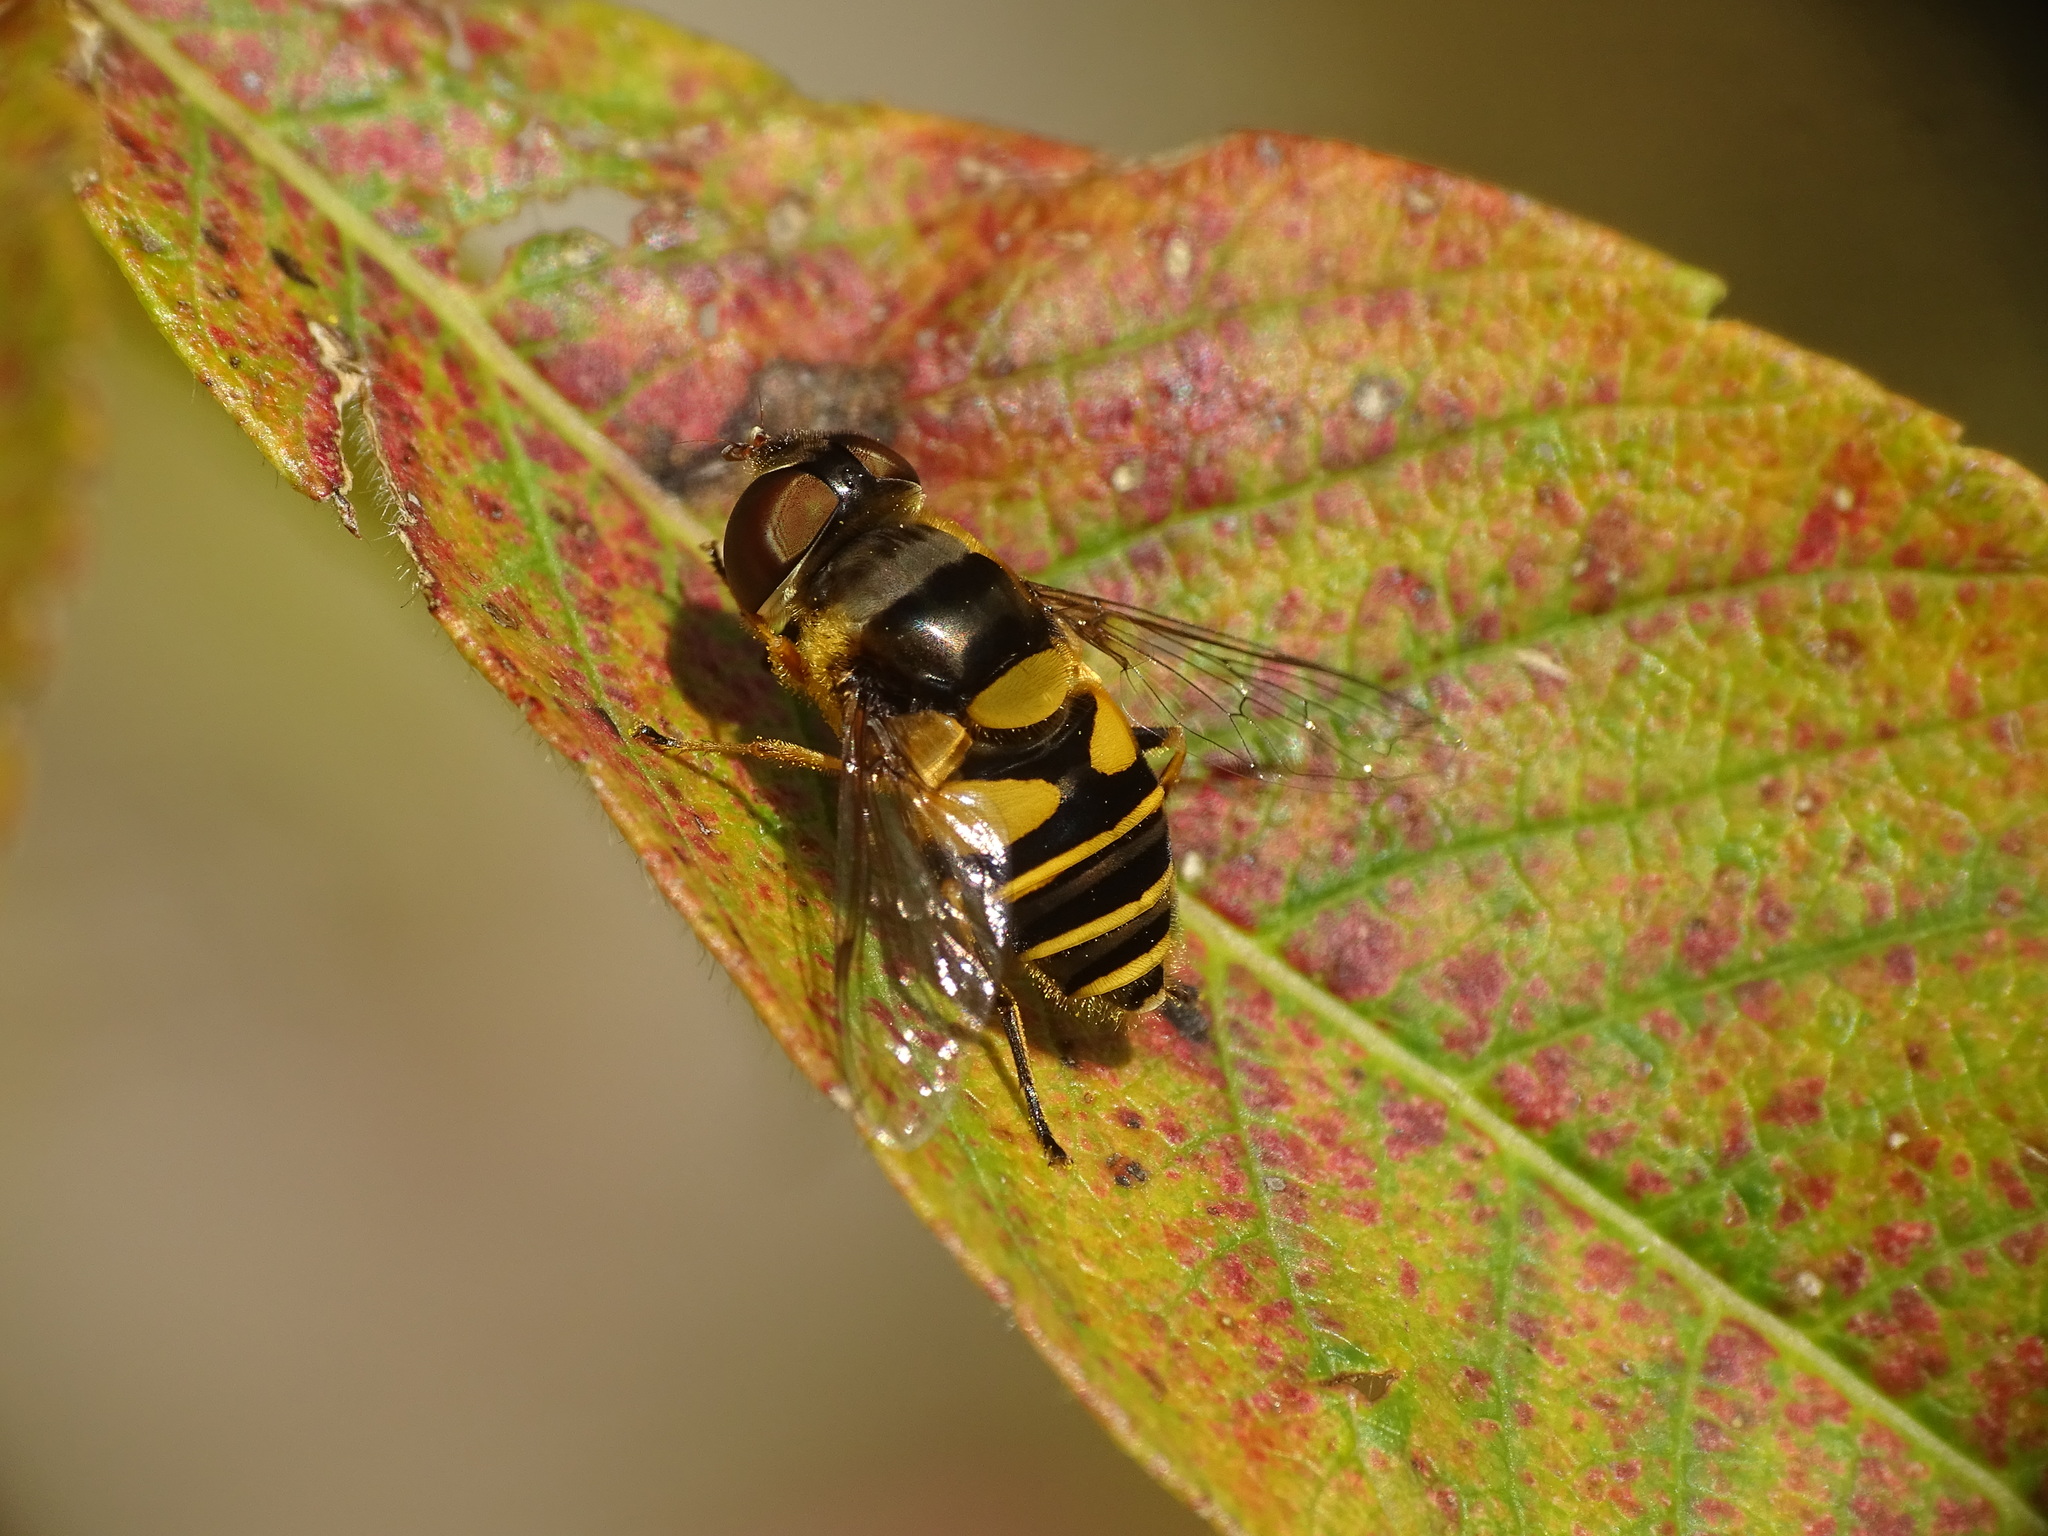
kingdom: Animalia
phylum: Arthropoda
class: Insecta
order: Diptera
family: Syrphidae
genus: Eristalis
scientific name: Eristalis transversa
